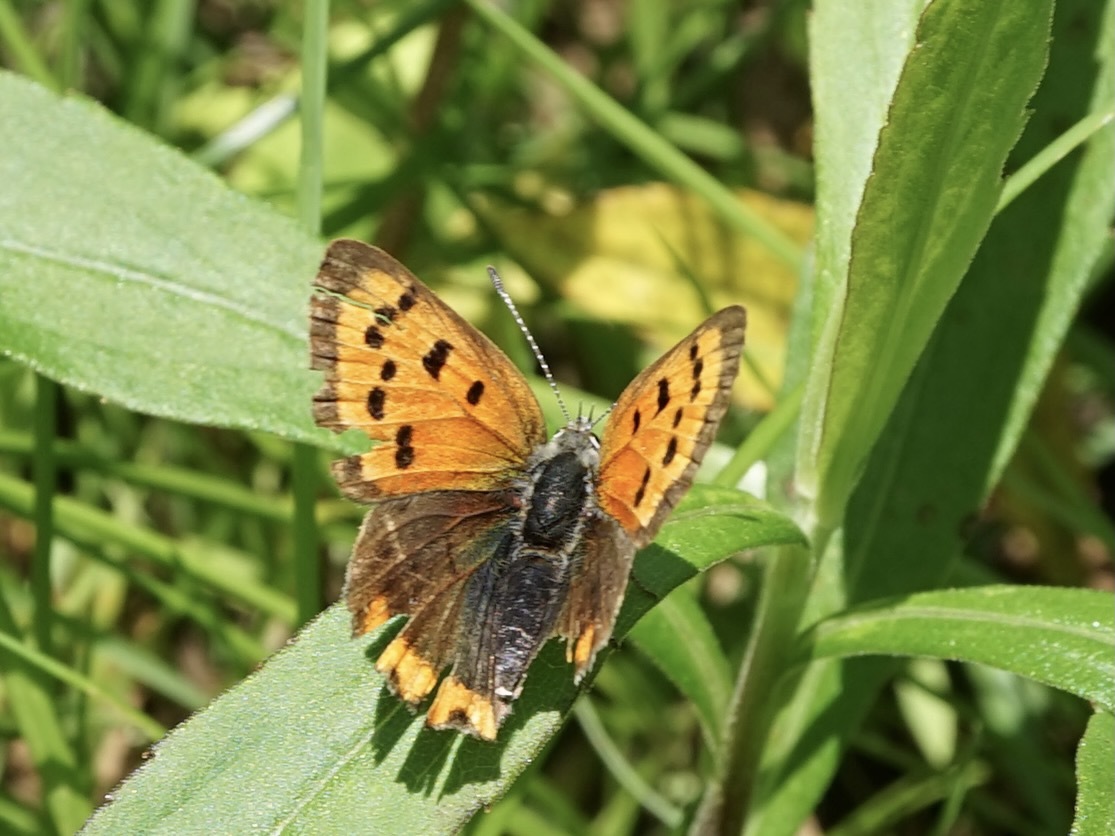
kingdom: Animalia
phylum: Arthropoda
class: Insecta
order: Lepidoptera
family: Lycaenidae
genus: Lycaena
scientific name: Lycaena phlaeas
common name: Small copper
